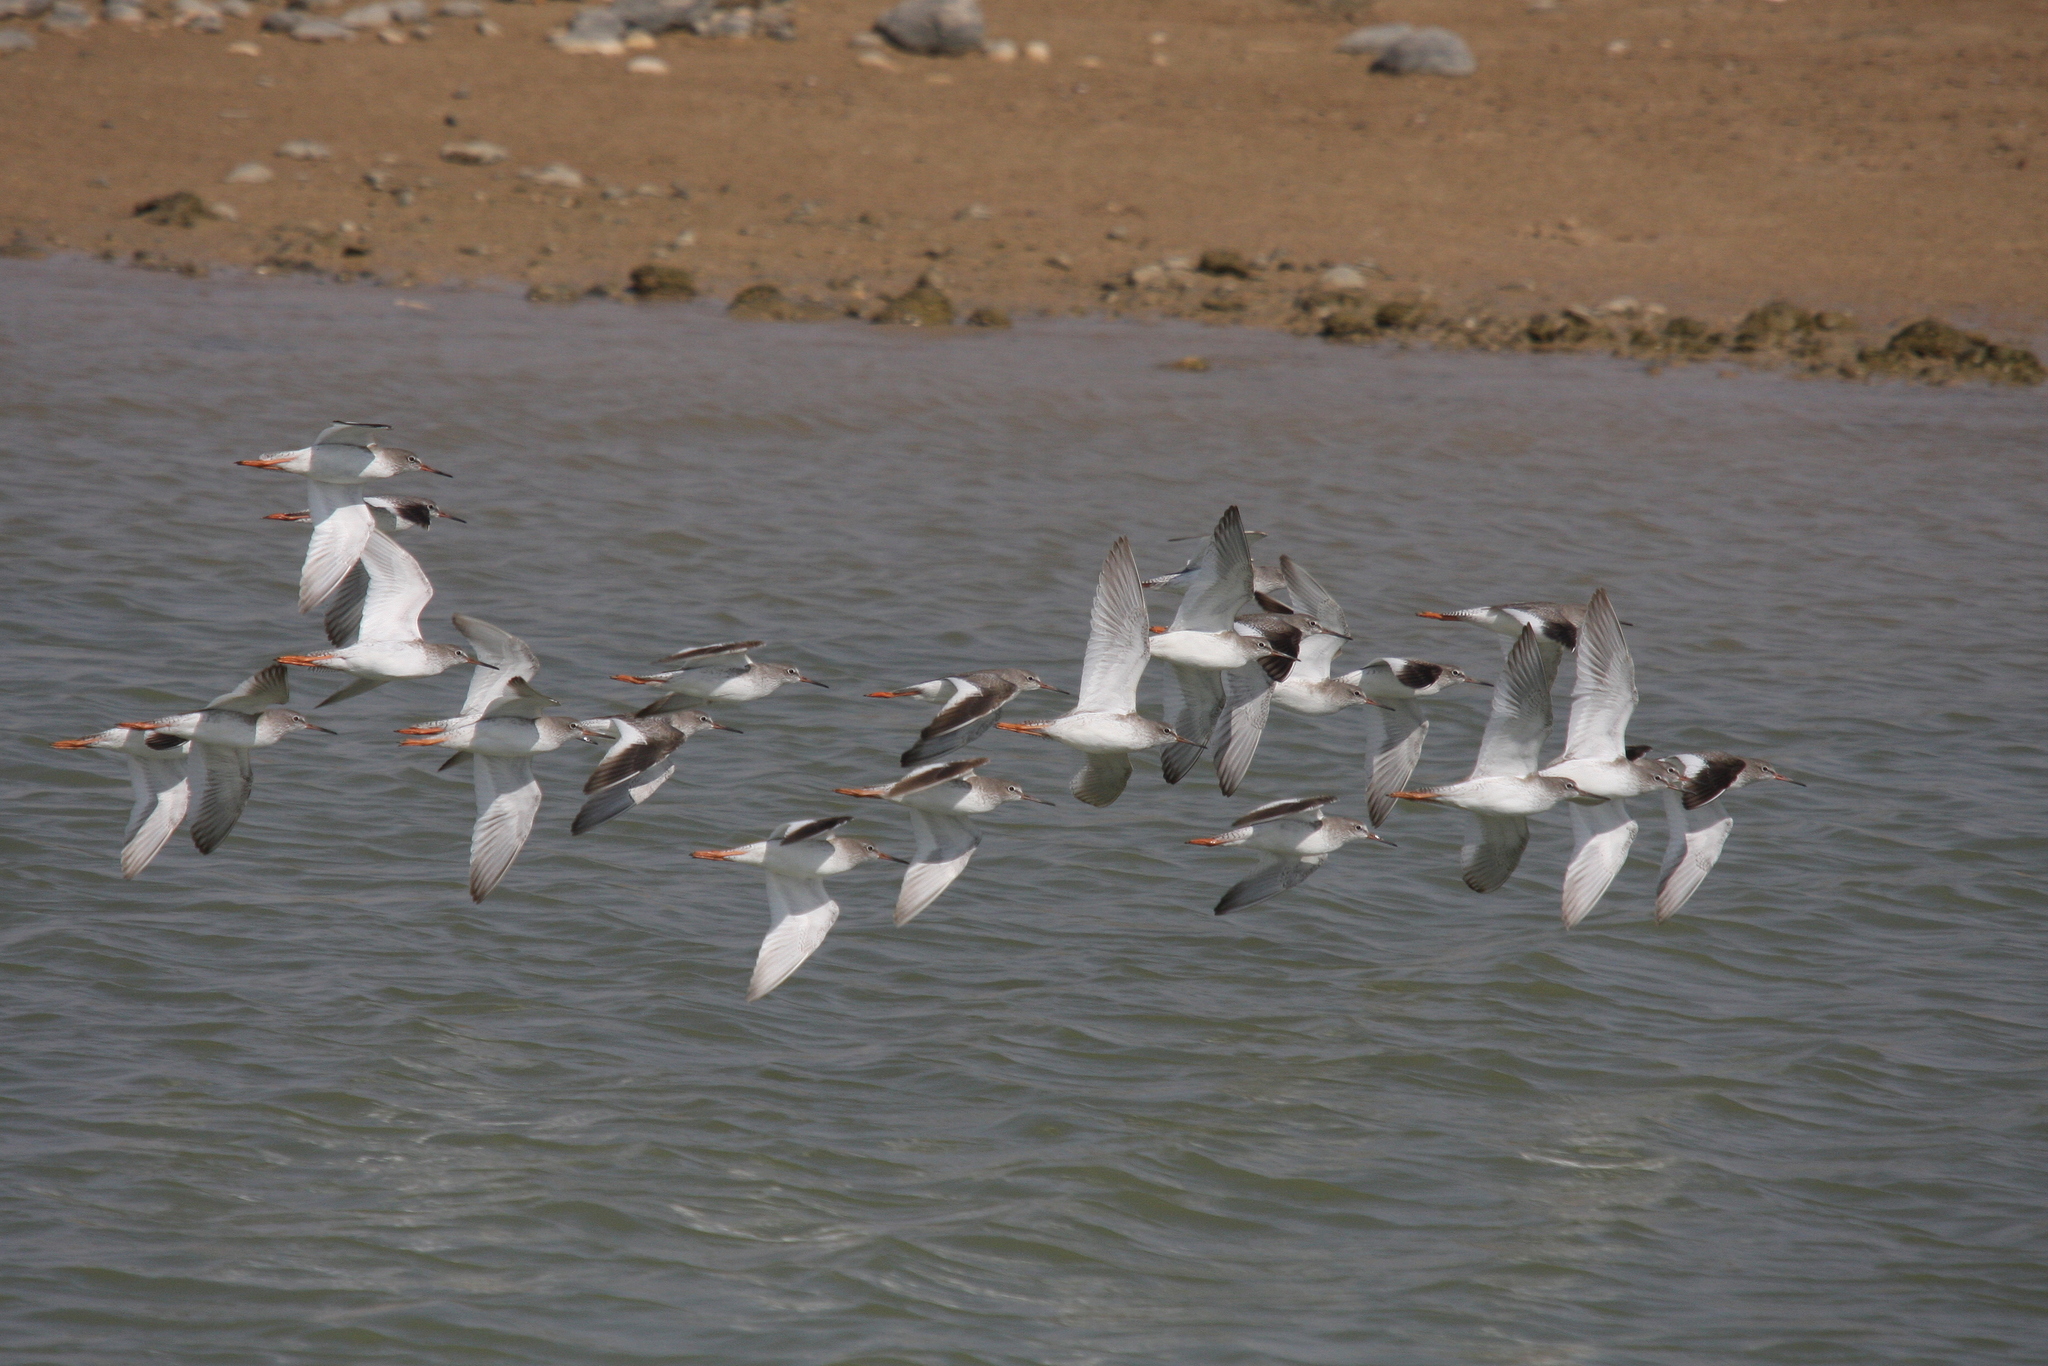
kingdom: Animalia
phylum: Chordata
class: Aves
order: Charadriiformes
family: Scolopacidae
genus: Tringa
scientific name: Tringa totanus
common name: Common redshank
